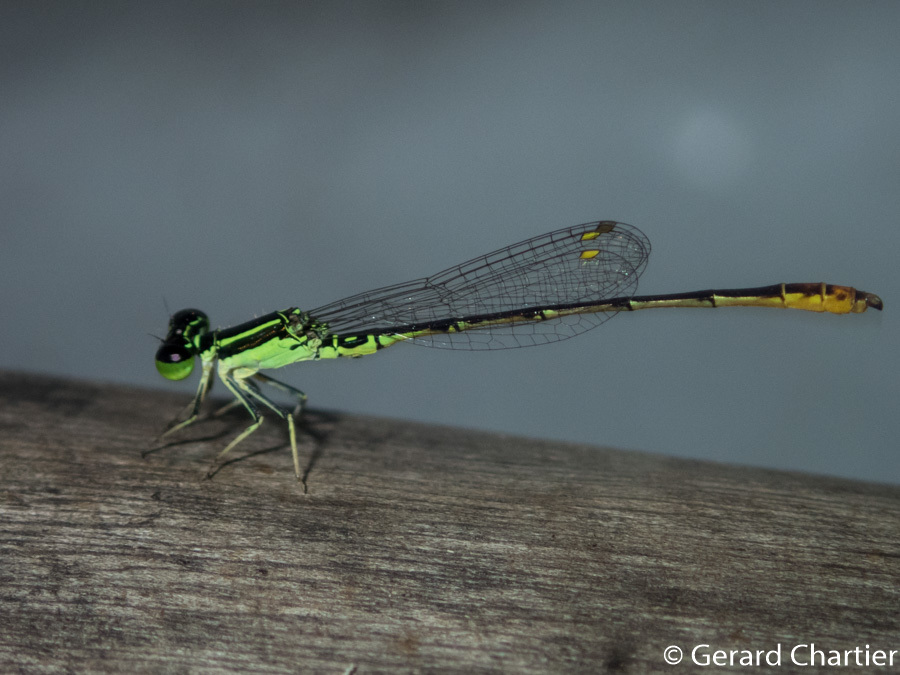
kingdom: Animalia
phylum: Arthropoda
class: Insecta
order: Odonata
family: Coenagrionidae
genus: Agriocnemis
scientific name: Agriocnemis minima
